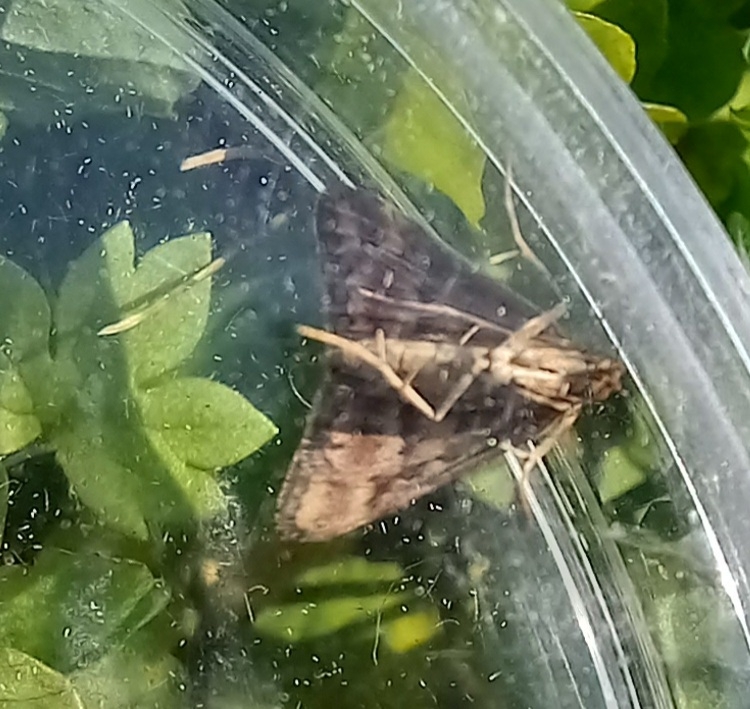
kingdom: Animalia
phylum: Arthropoda
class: Insecta
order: Lepidoptera
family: Crambidae
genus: Pyrausta
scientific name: Pyrausta despicata
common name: Straw-barred pearl
